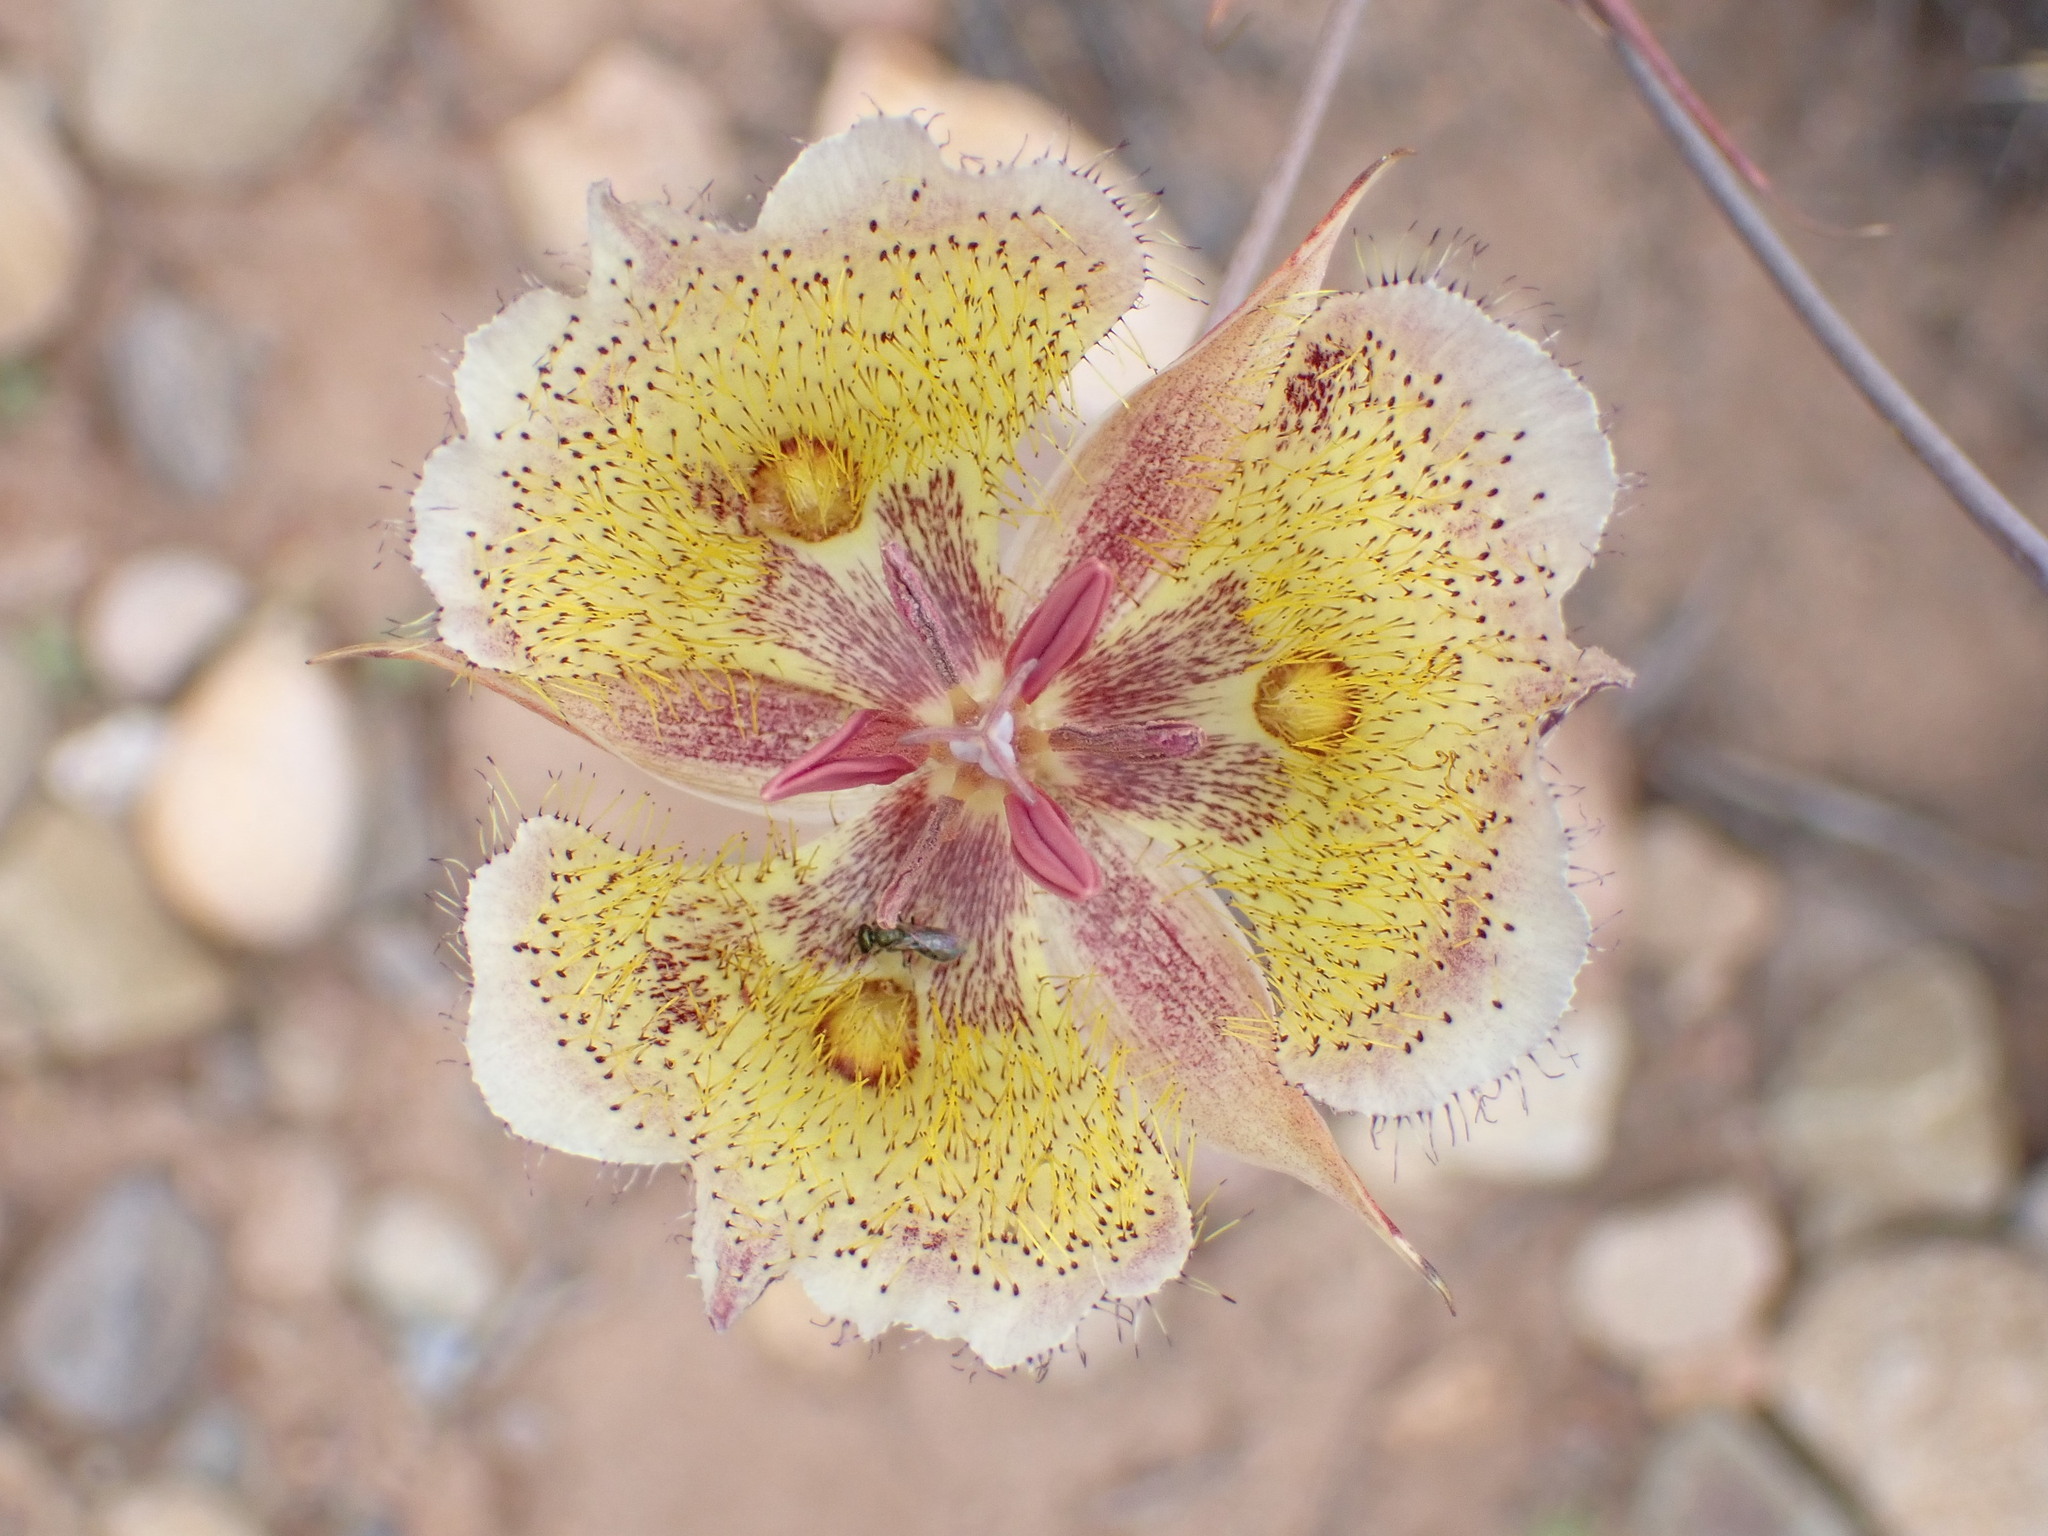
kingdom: Plantae
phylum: Tracheophyta
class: Liliopsida
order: Liliales
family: Liliaceae
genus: Calochortus
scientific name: Calochortus weedii
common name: Weed's mariposa-lily
